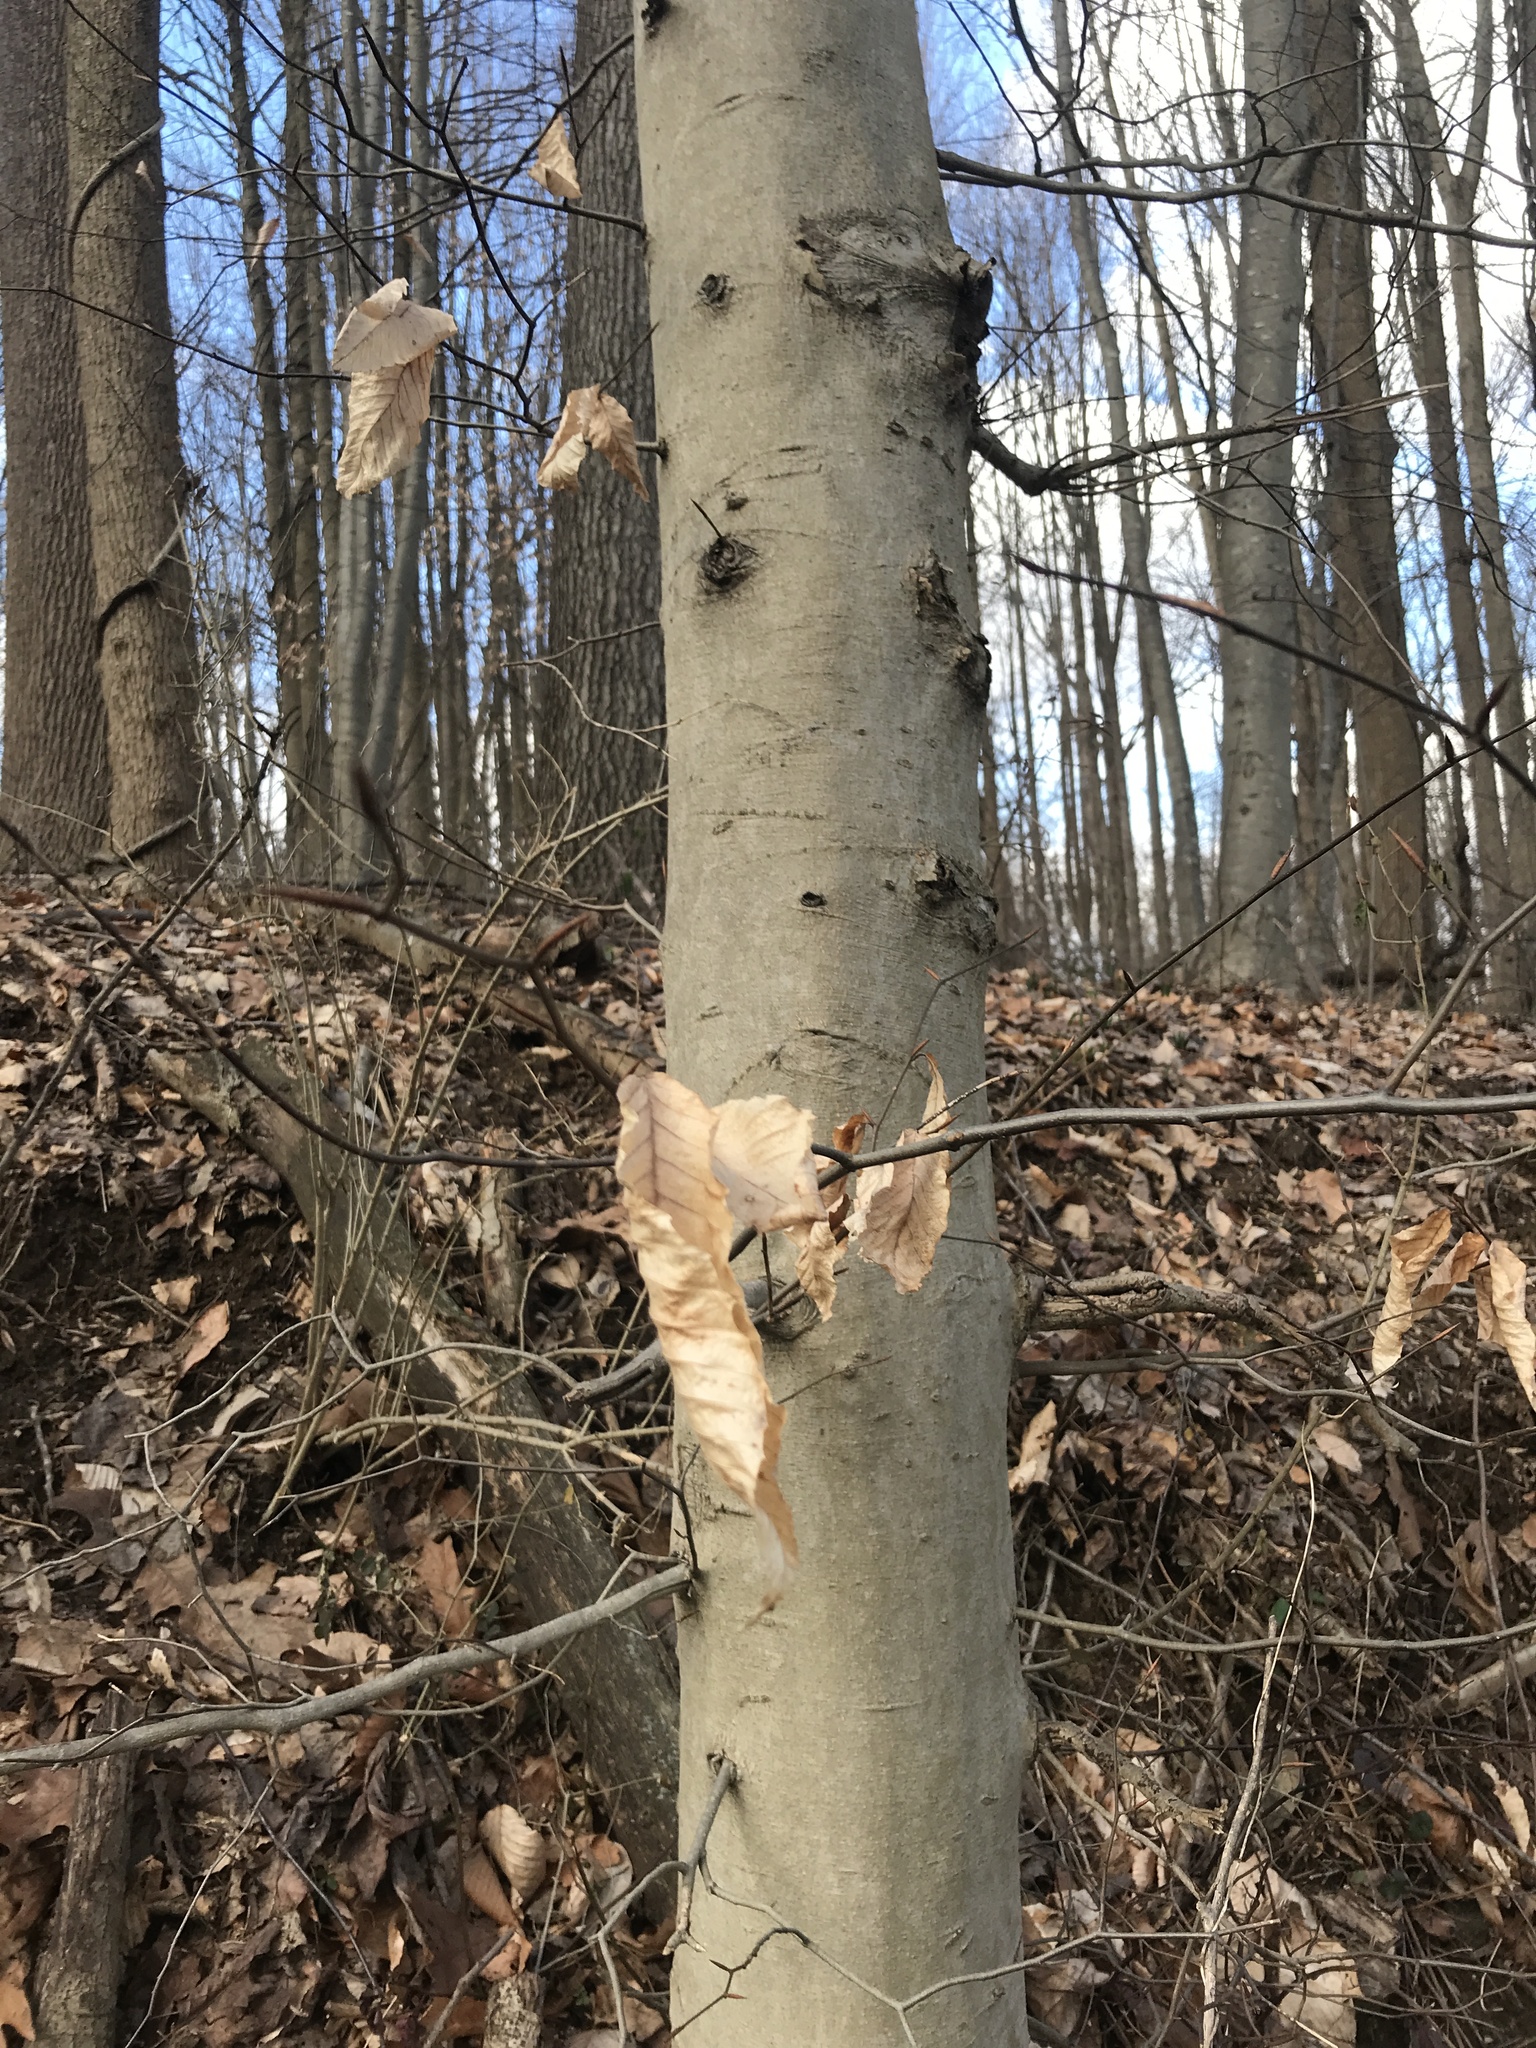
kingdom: Plantae
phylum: Tracheophyta
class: Magnoliopsida
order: Fagales
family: Fagaceae
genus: Fagus
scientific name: Fagus grandifolia
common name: American beech
